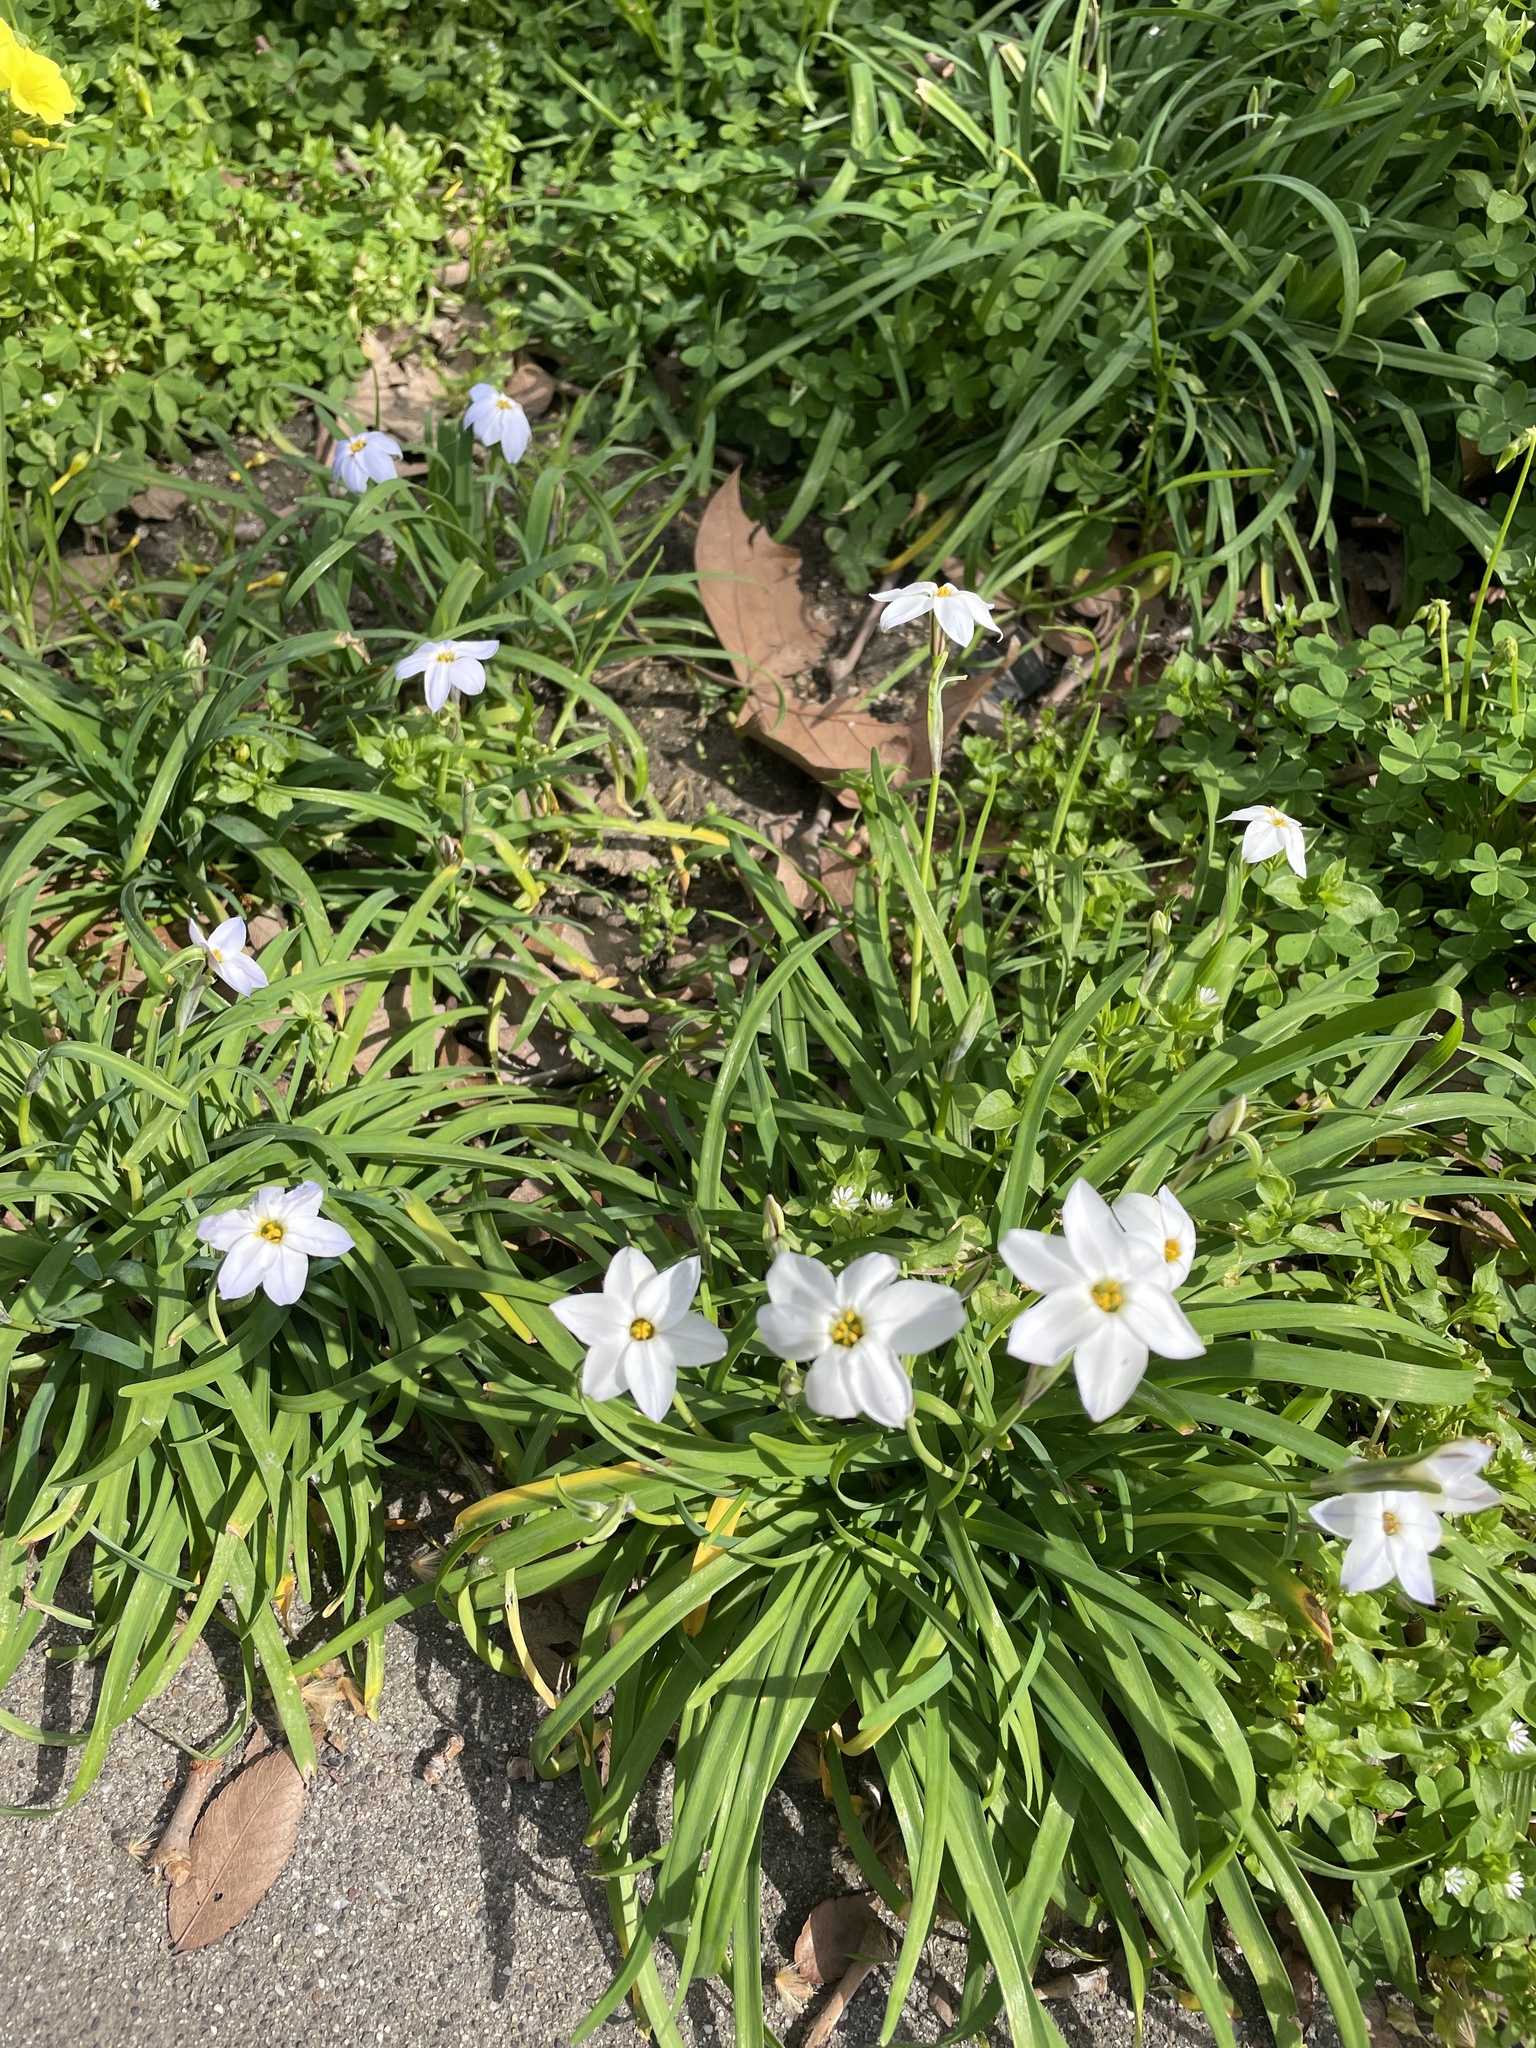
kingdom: Plantae
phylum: Tracheophyta
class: Liliopsida
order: Asparagales
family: Amaryllidaceae
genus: Ipheion
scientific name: Ipheion uniflorum
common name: Spring starflower
